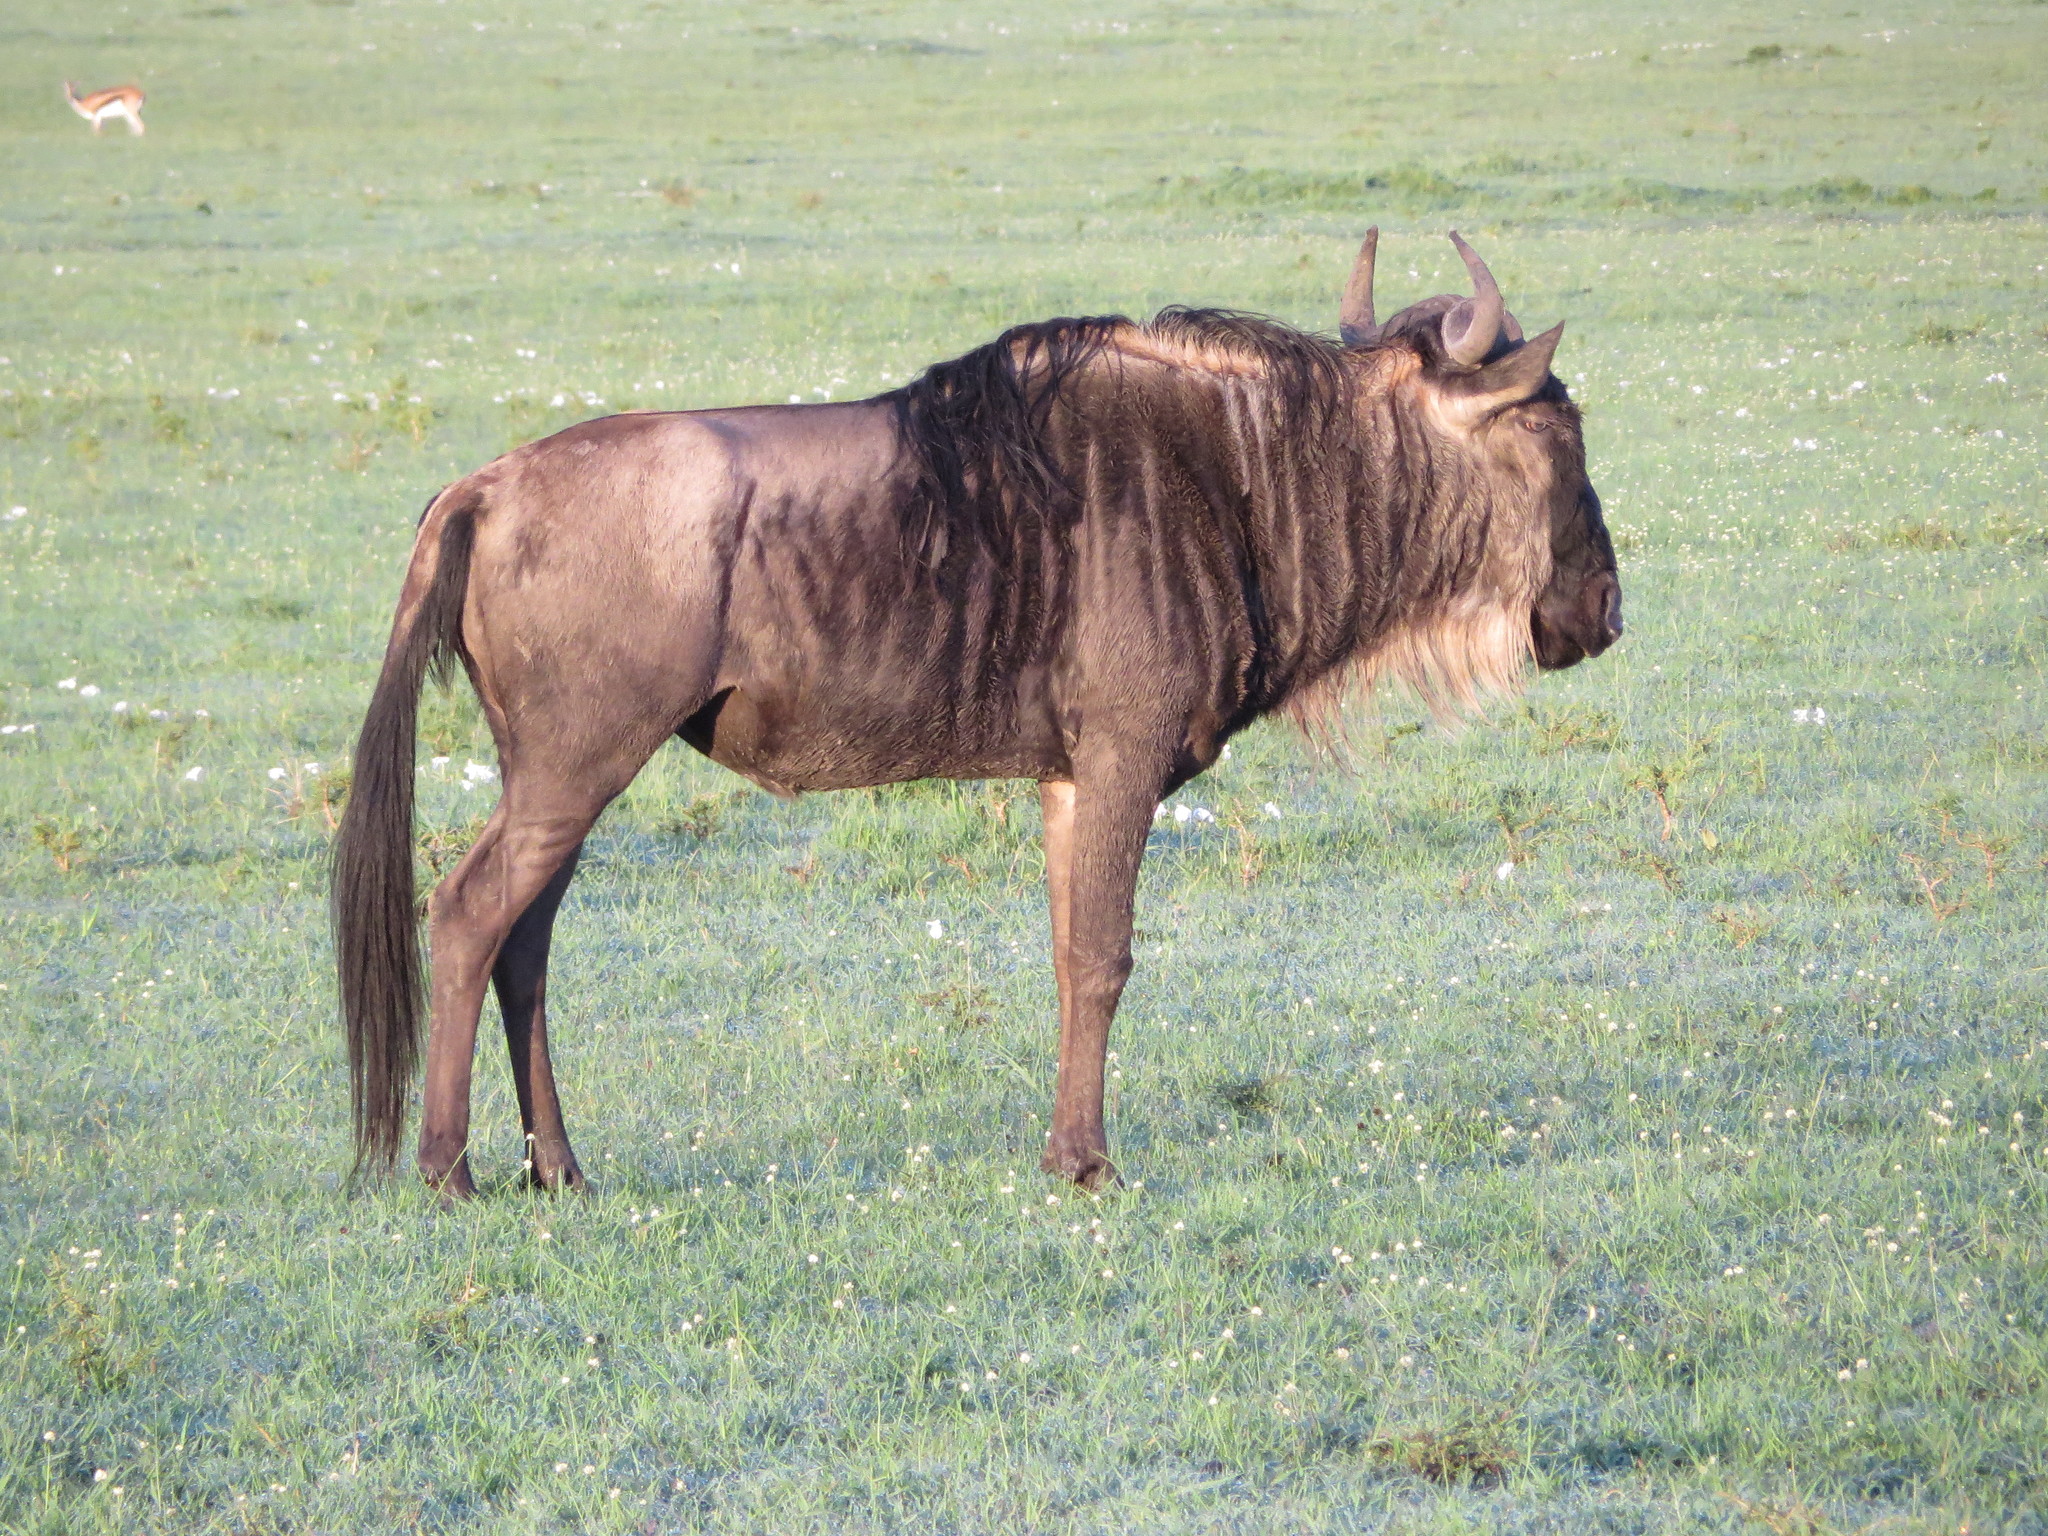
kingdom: Animalia
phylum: Chordata
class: Mammalia
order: Artiodactyla
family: Bovidae
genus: Connochaetes
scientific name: Connochaetes taurinus
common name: Blue wildebeest
